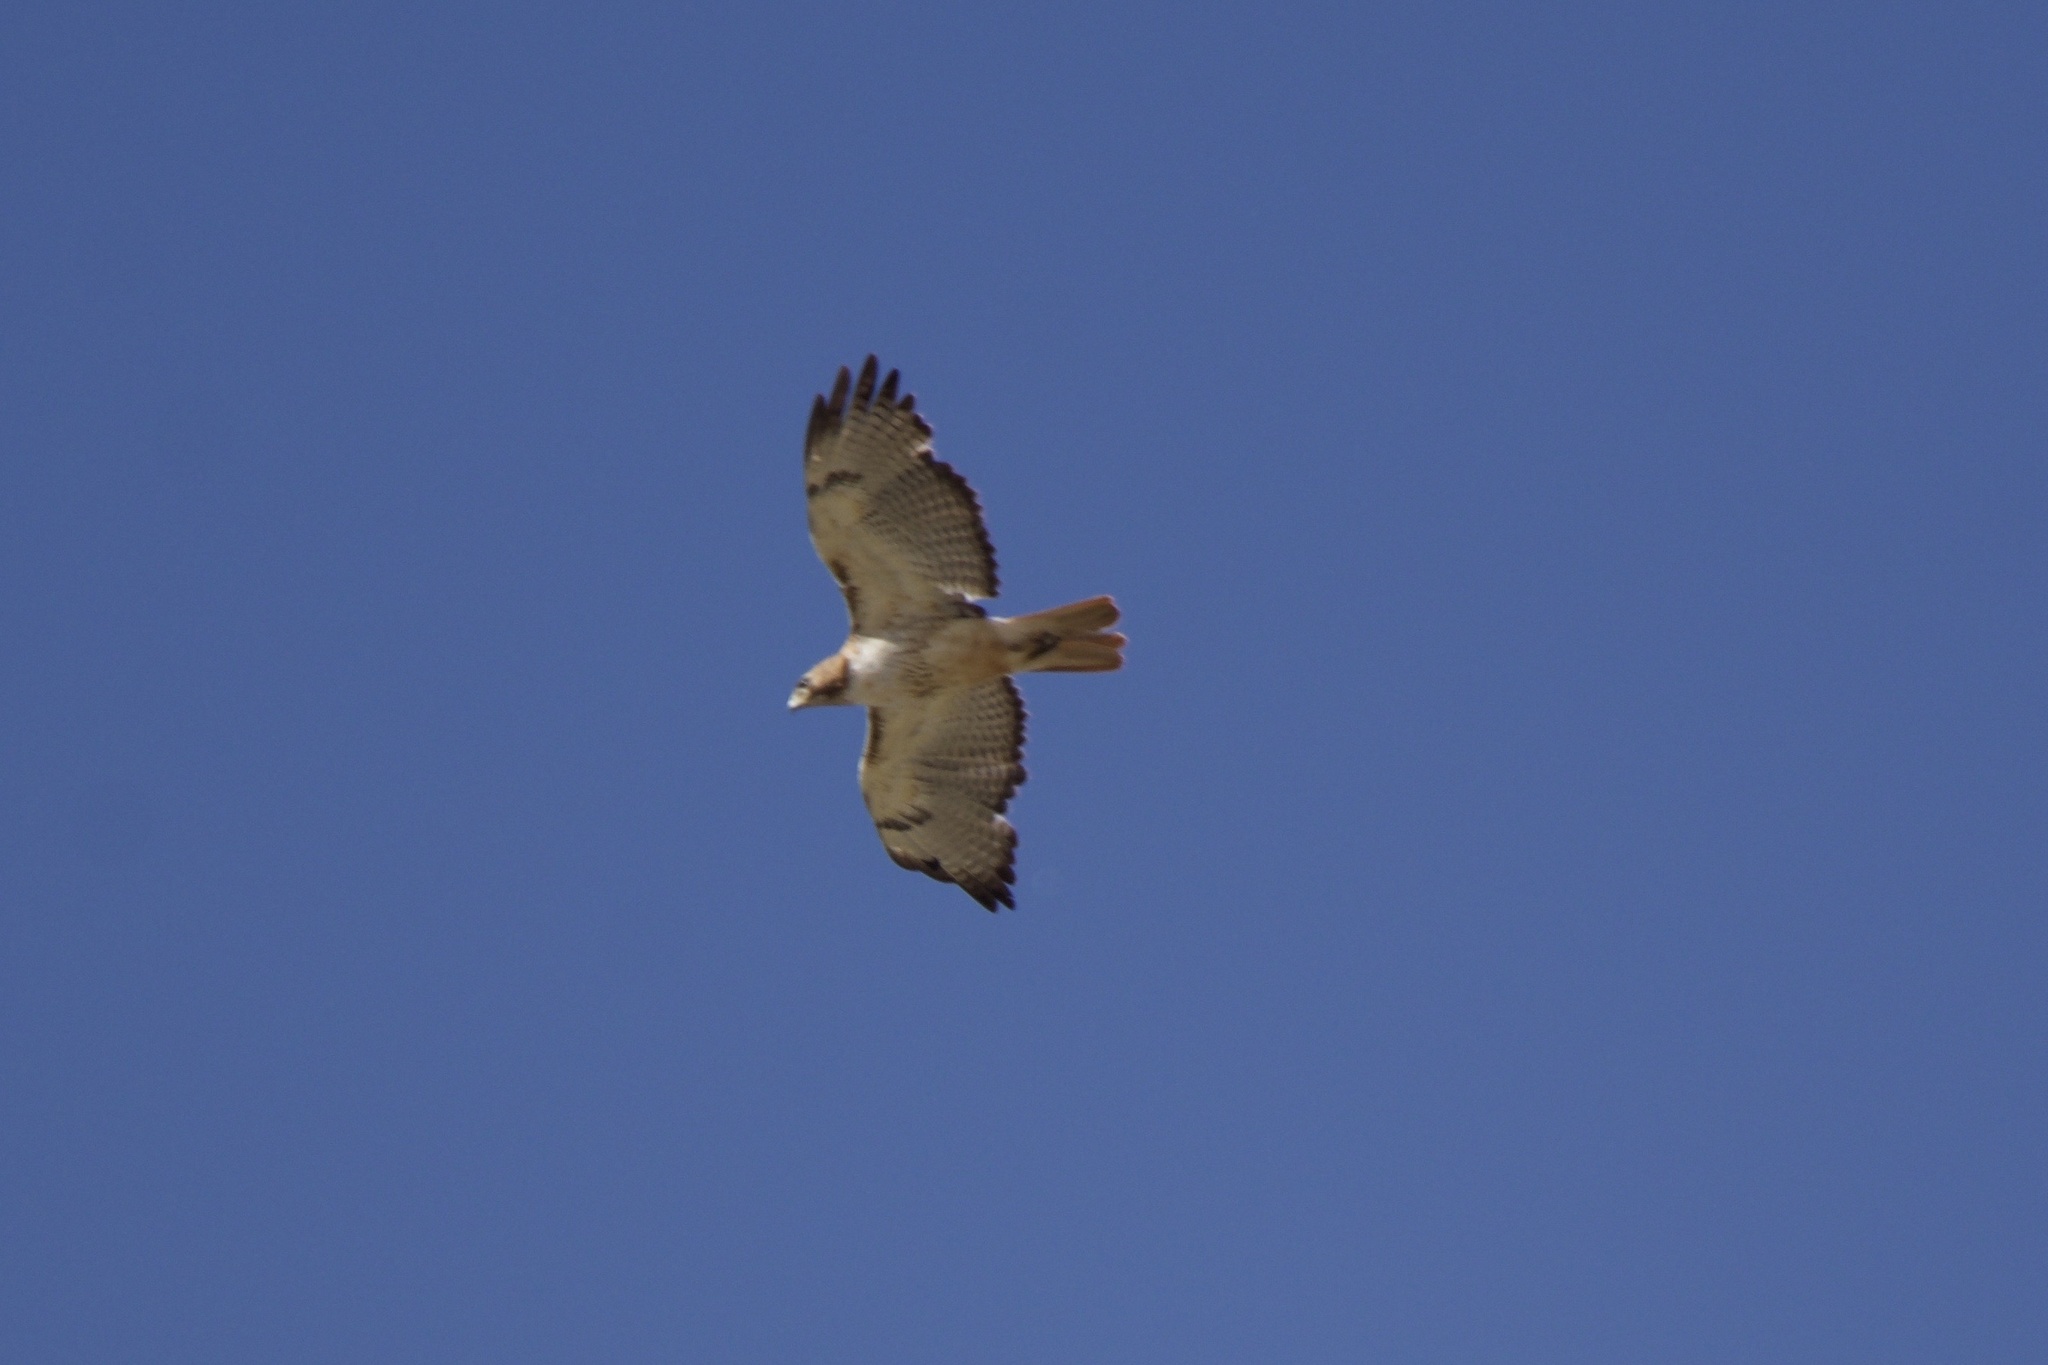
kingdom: Animalia
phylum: Chordata
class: Aves
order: Accipitriformes
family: Accipitridae
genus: Buteo
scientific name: Buteo jamaicensis
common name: Red-tailed hawk
